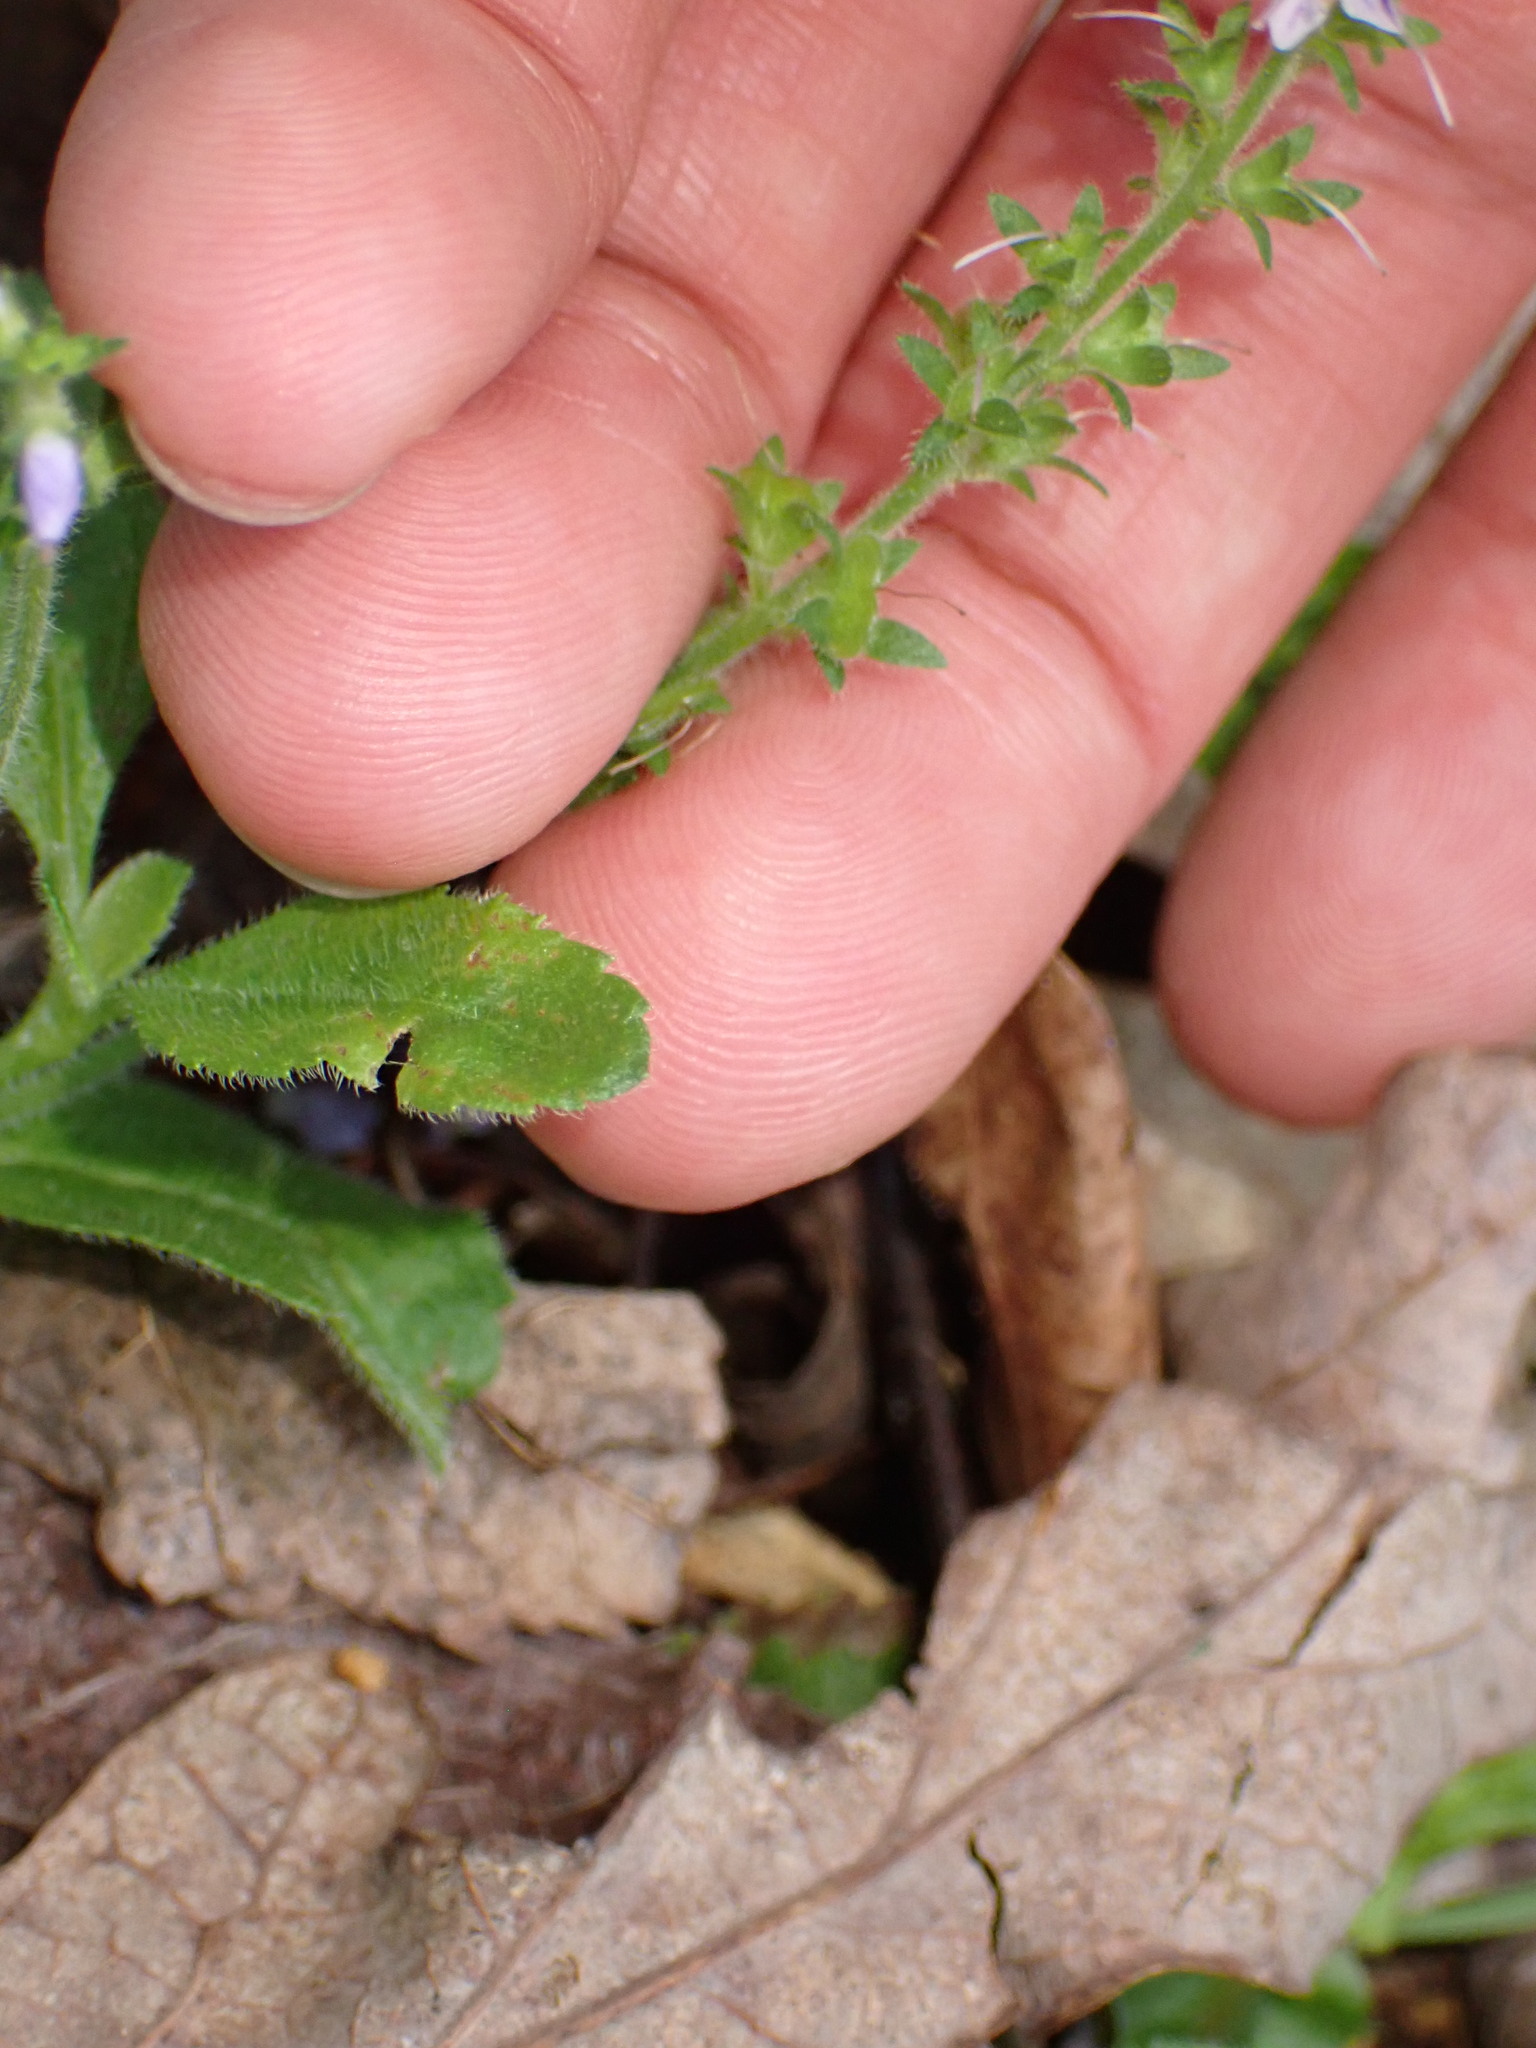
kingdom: Plantae
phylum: Tracheophyta
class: Magnoliopsida
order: Lamiales
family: Plantaginaceae
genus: Veronica
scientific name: Veronica officinalis
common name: Common speedwell
